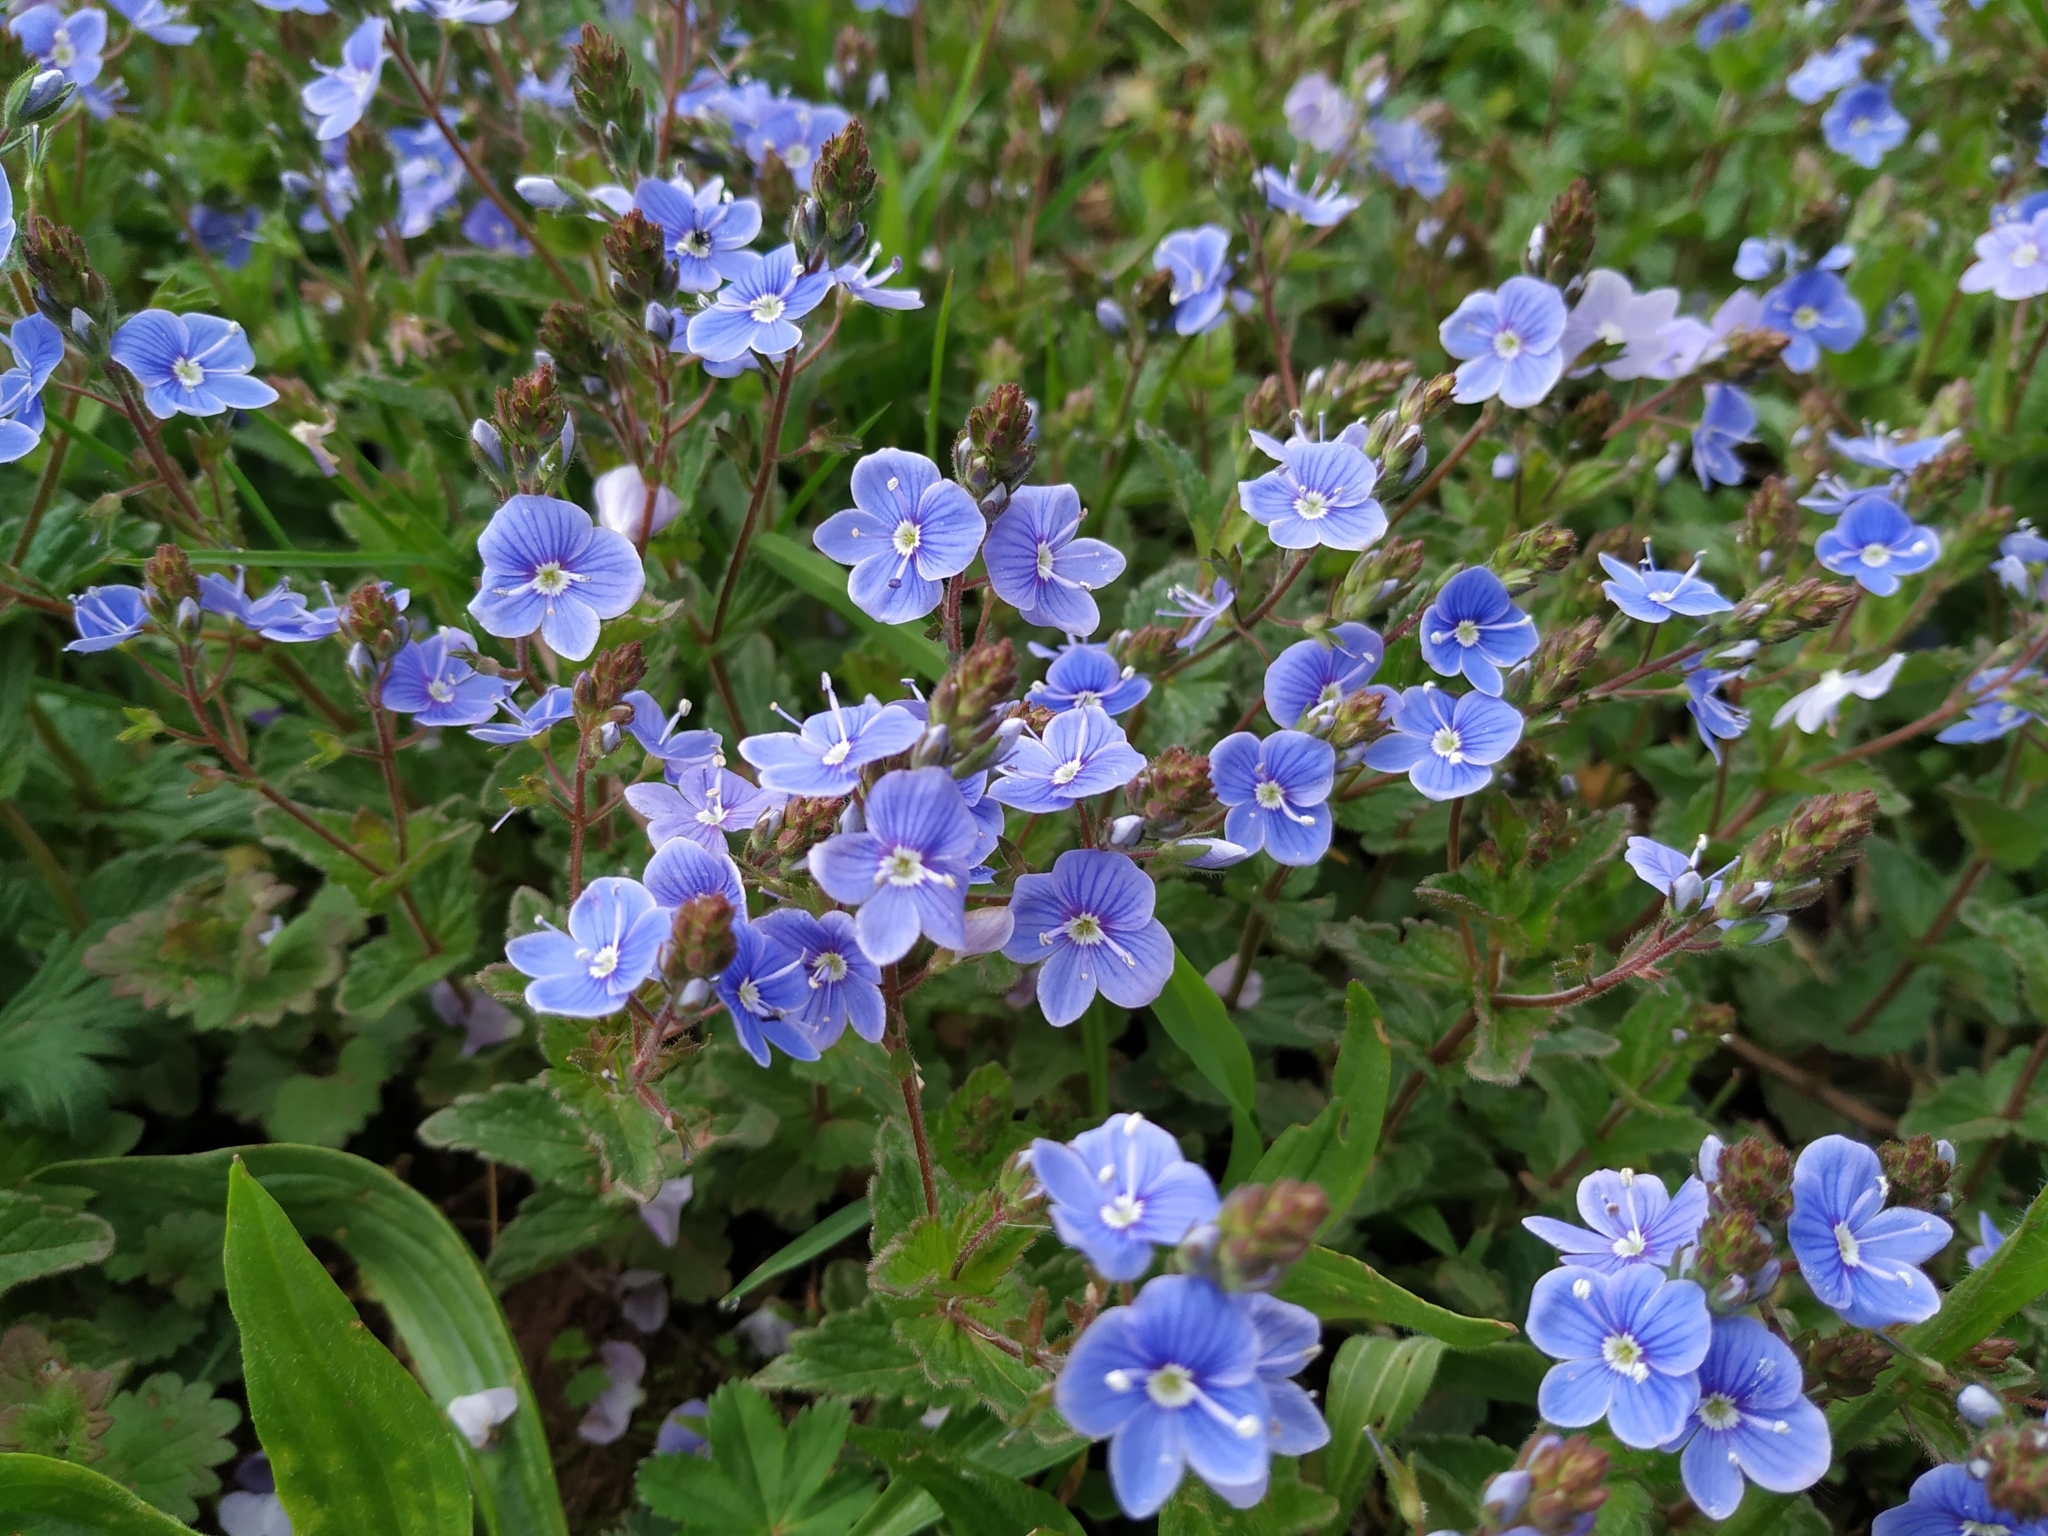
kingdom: Plantae
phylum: Tracheophyta
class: Magnoliopsida
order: Lamiales
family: Plantaginaceae
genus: Veronica
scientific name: Veronica chamaedrys
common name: Germander speedwell
